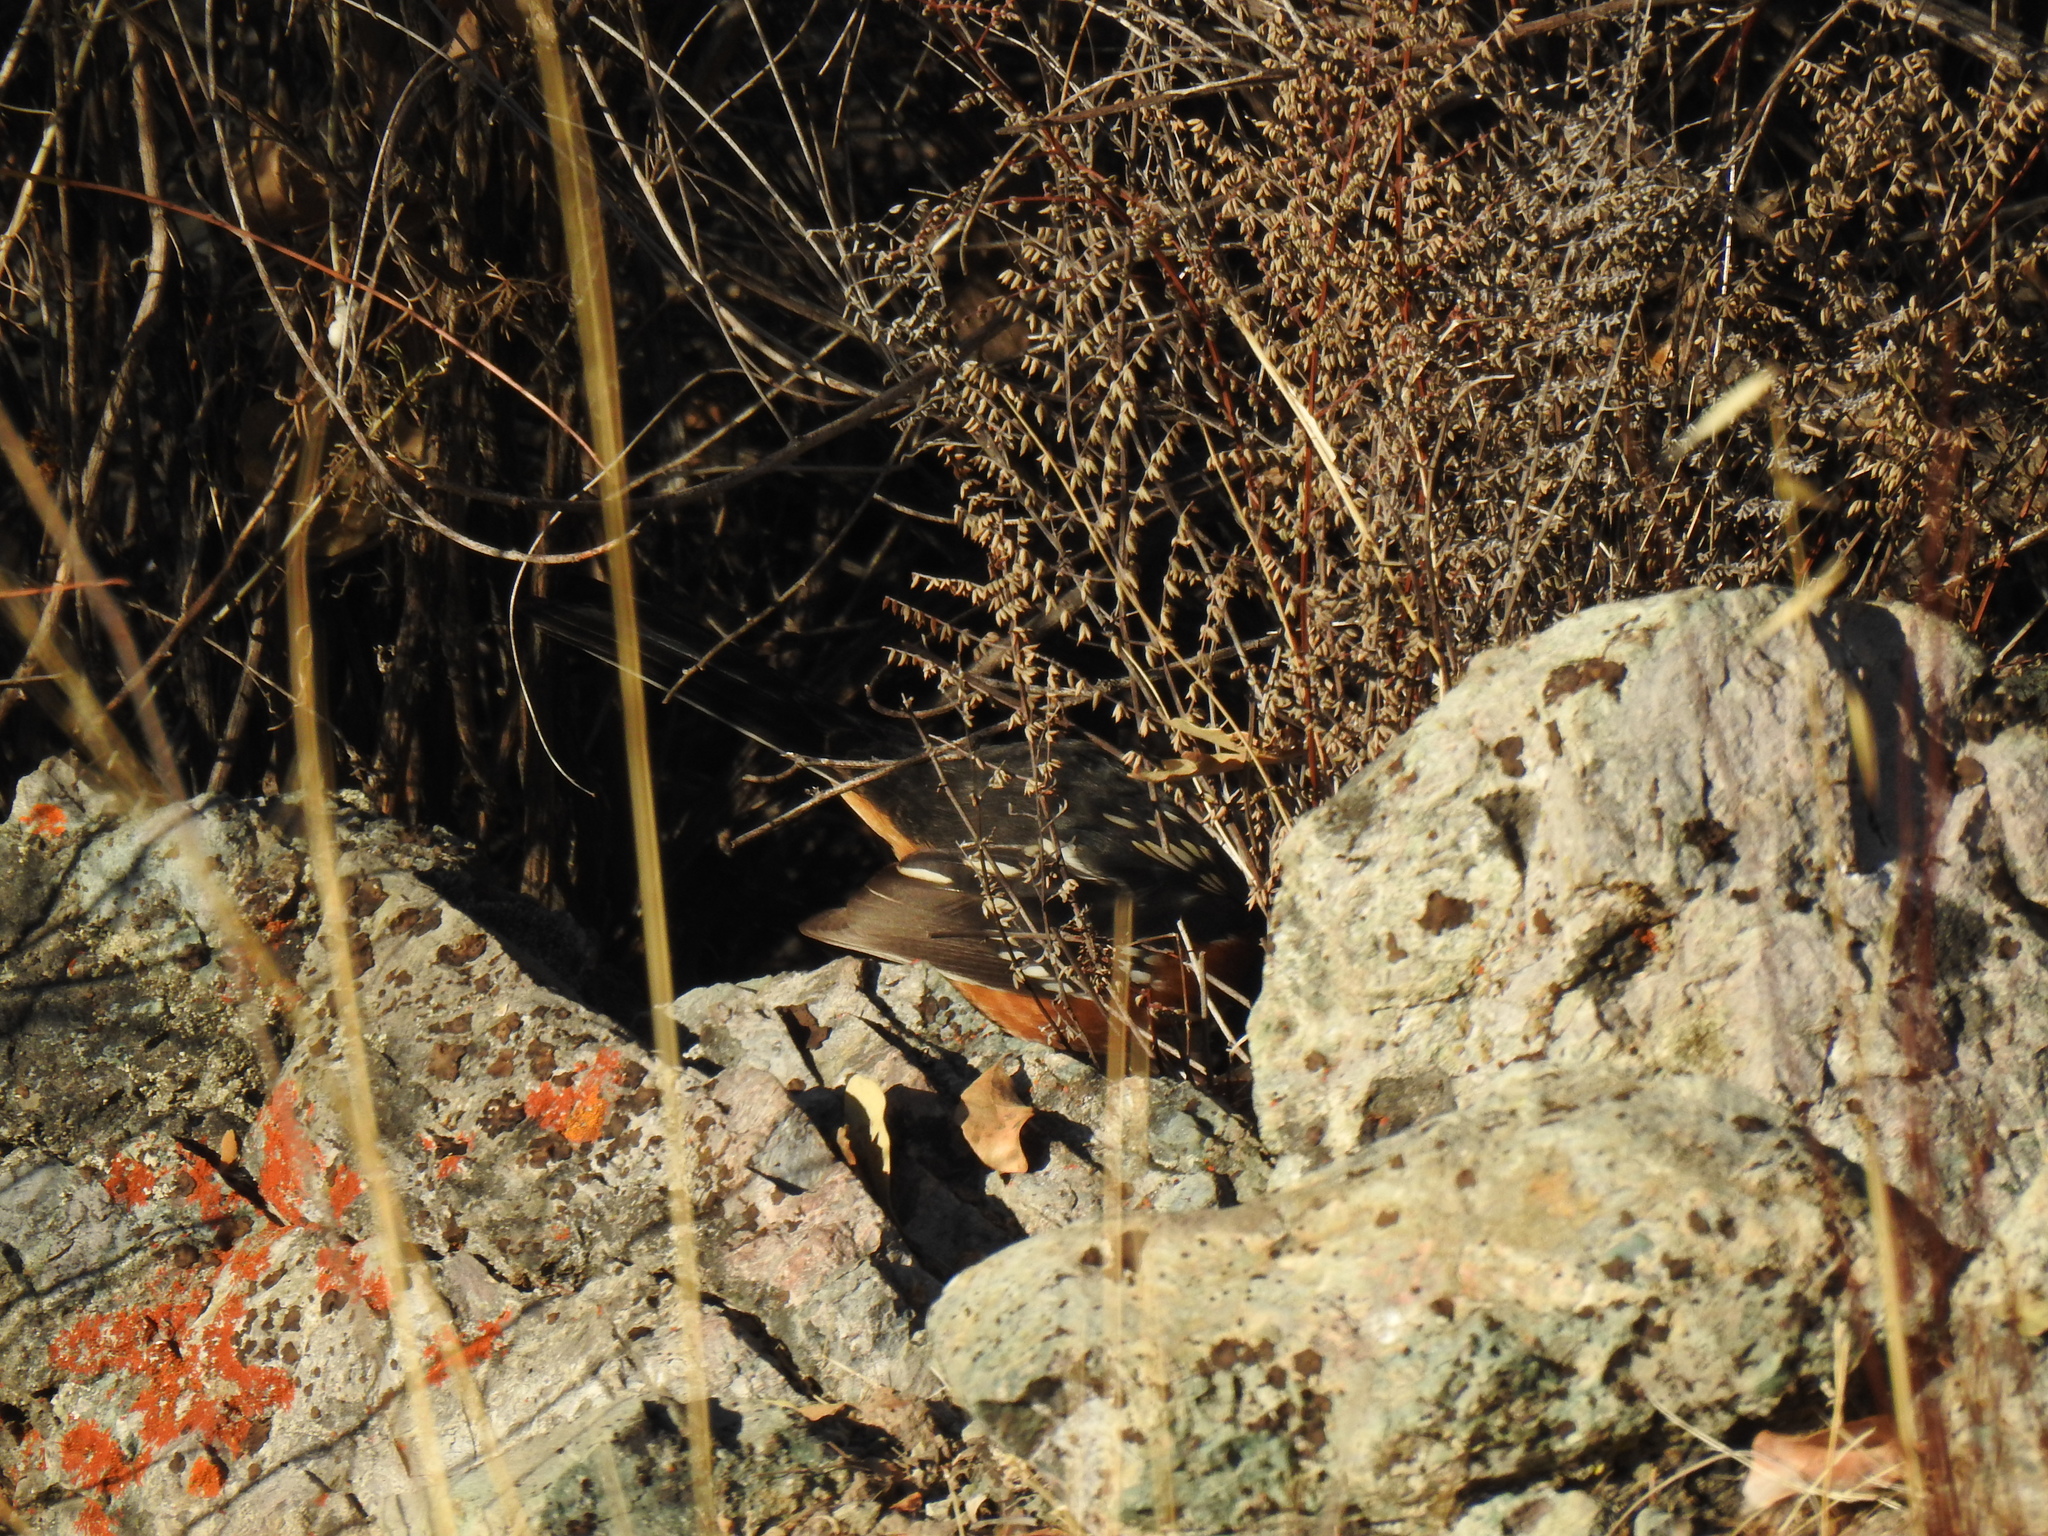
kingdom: Animalia
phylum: Chordata
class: Aves
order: Passeriformes
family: Passerellidae
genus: Pipilo
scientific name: Pipilo maculatus
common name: Spotted towhee
